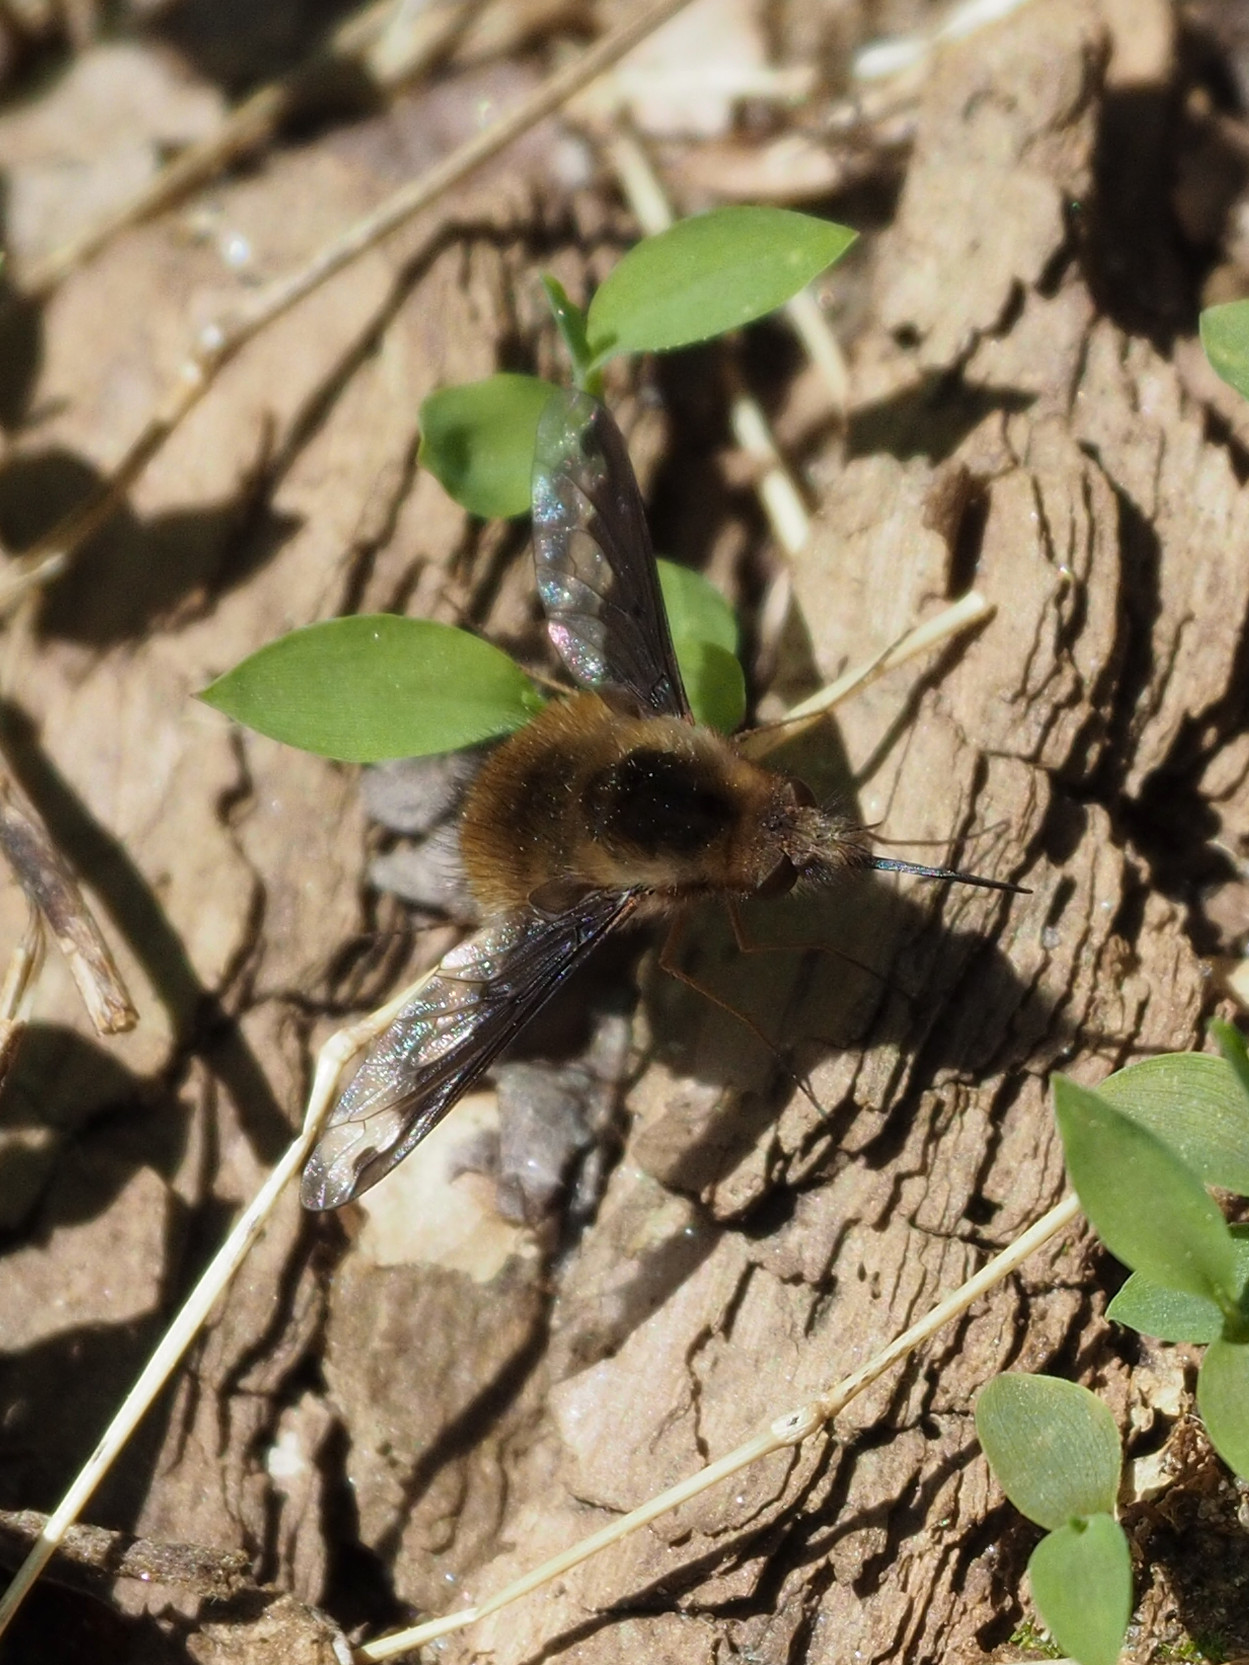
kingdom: Animalia
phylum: Arthropoda
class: Insecta
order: Diptera
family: Bombyliidae
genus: Bombylius
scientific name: Bombylius major
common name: Bee fly
